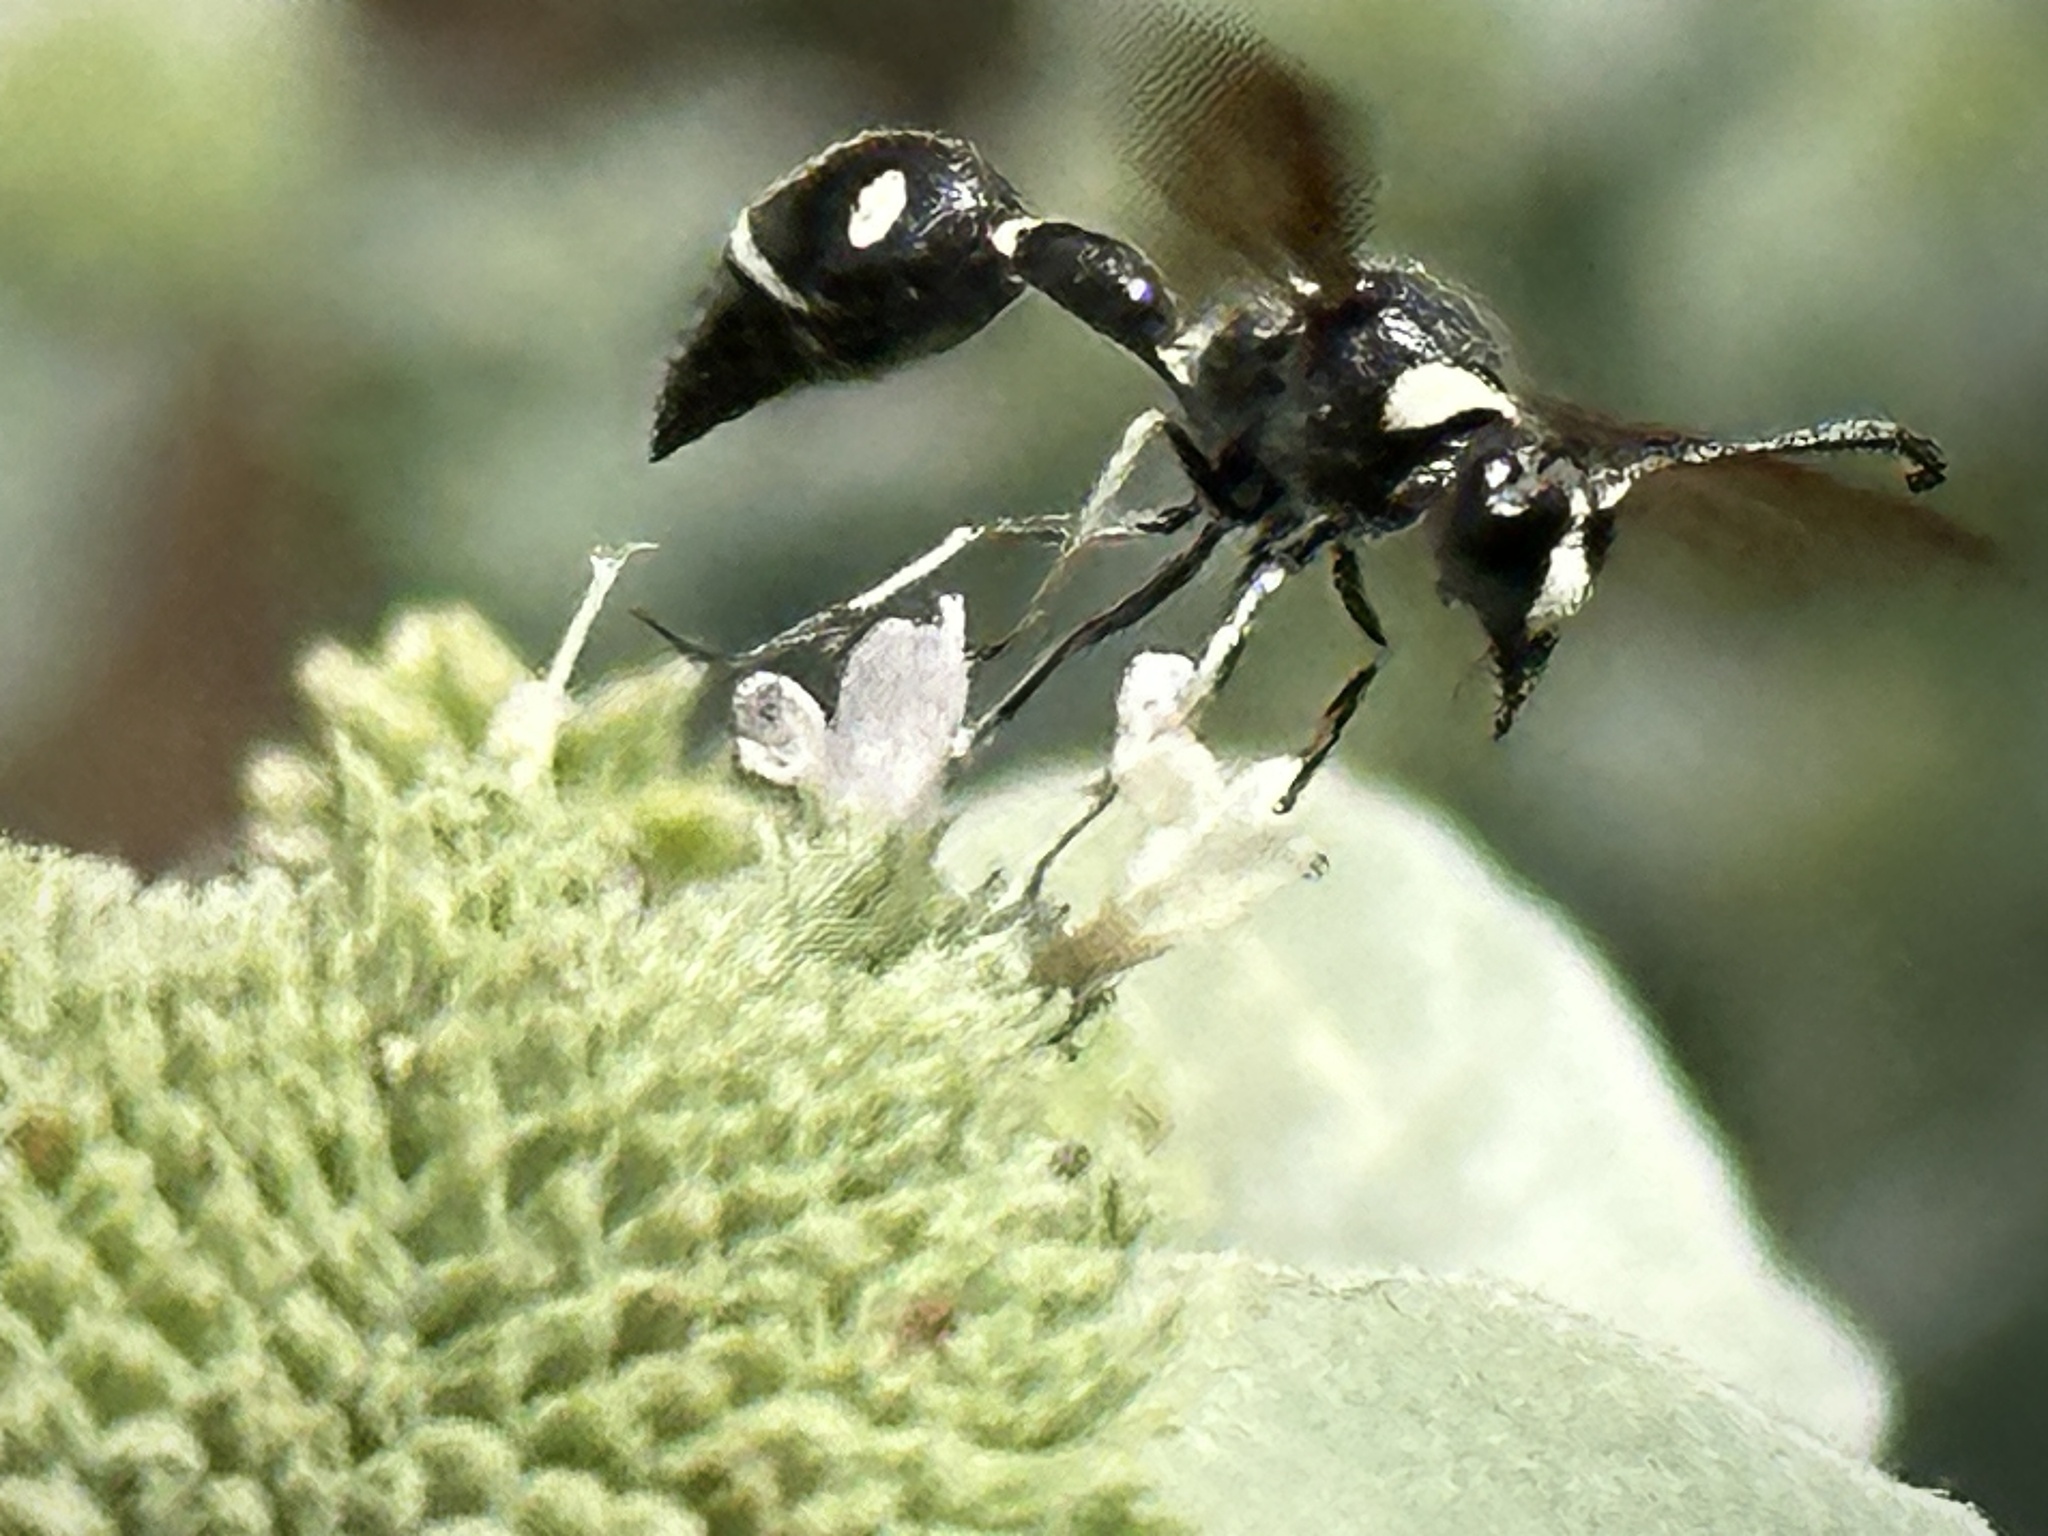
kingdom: Animalia
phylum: Arthropoda
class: Insecta
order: Hymenoptera
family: Vespidae
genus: Eumenes
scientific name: Eumenes fraternus
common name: Fraternal potter wasp
